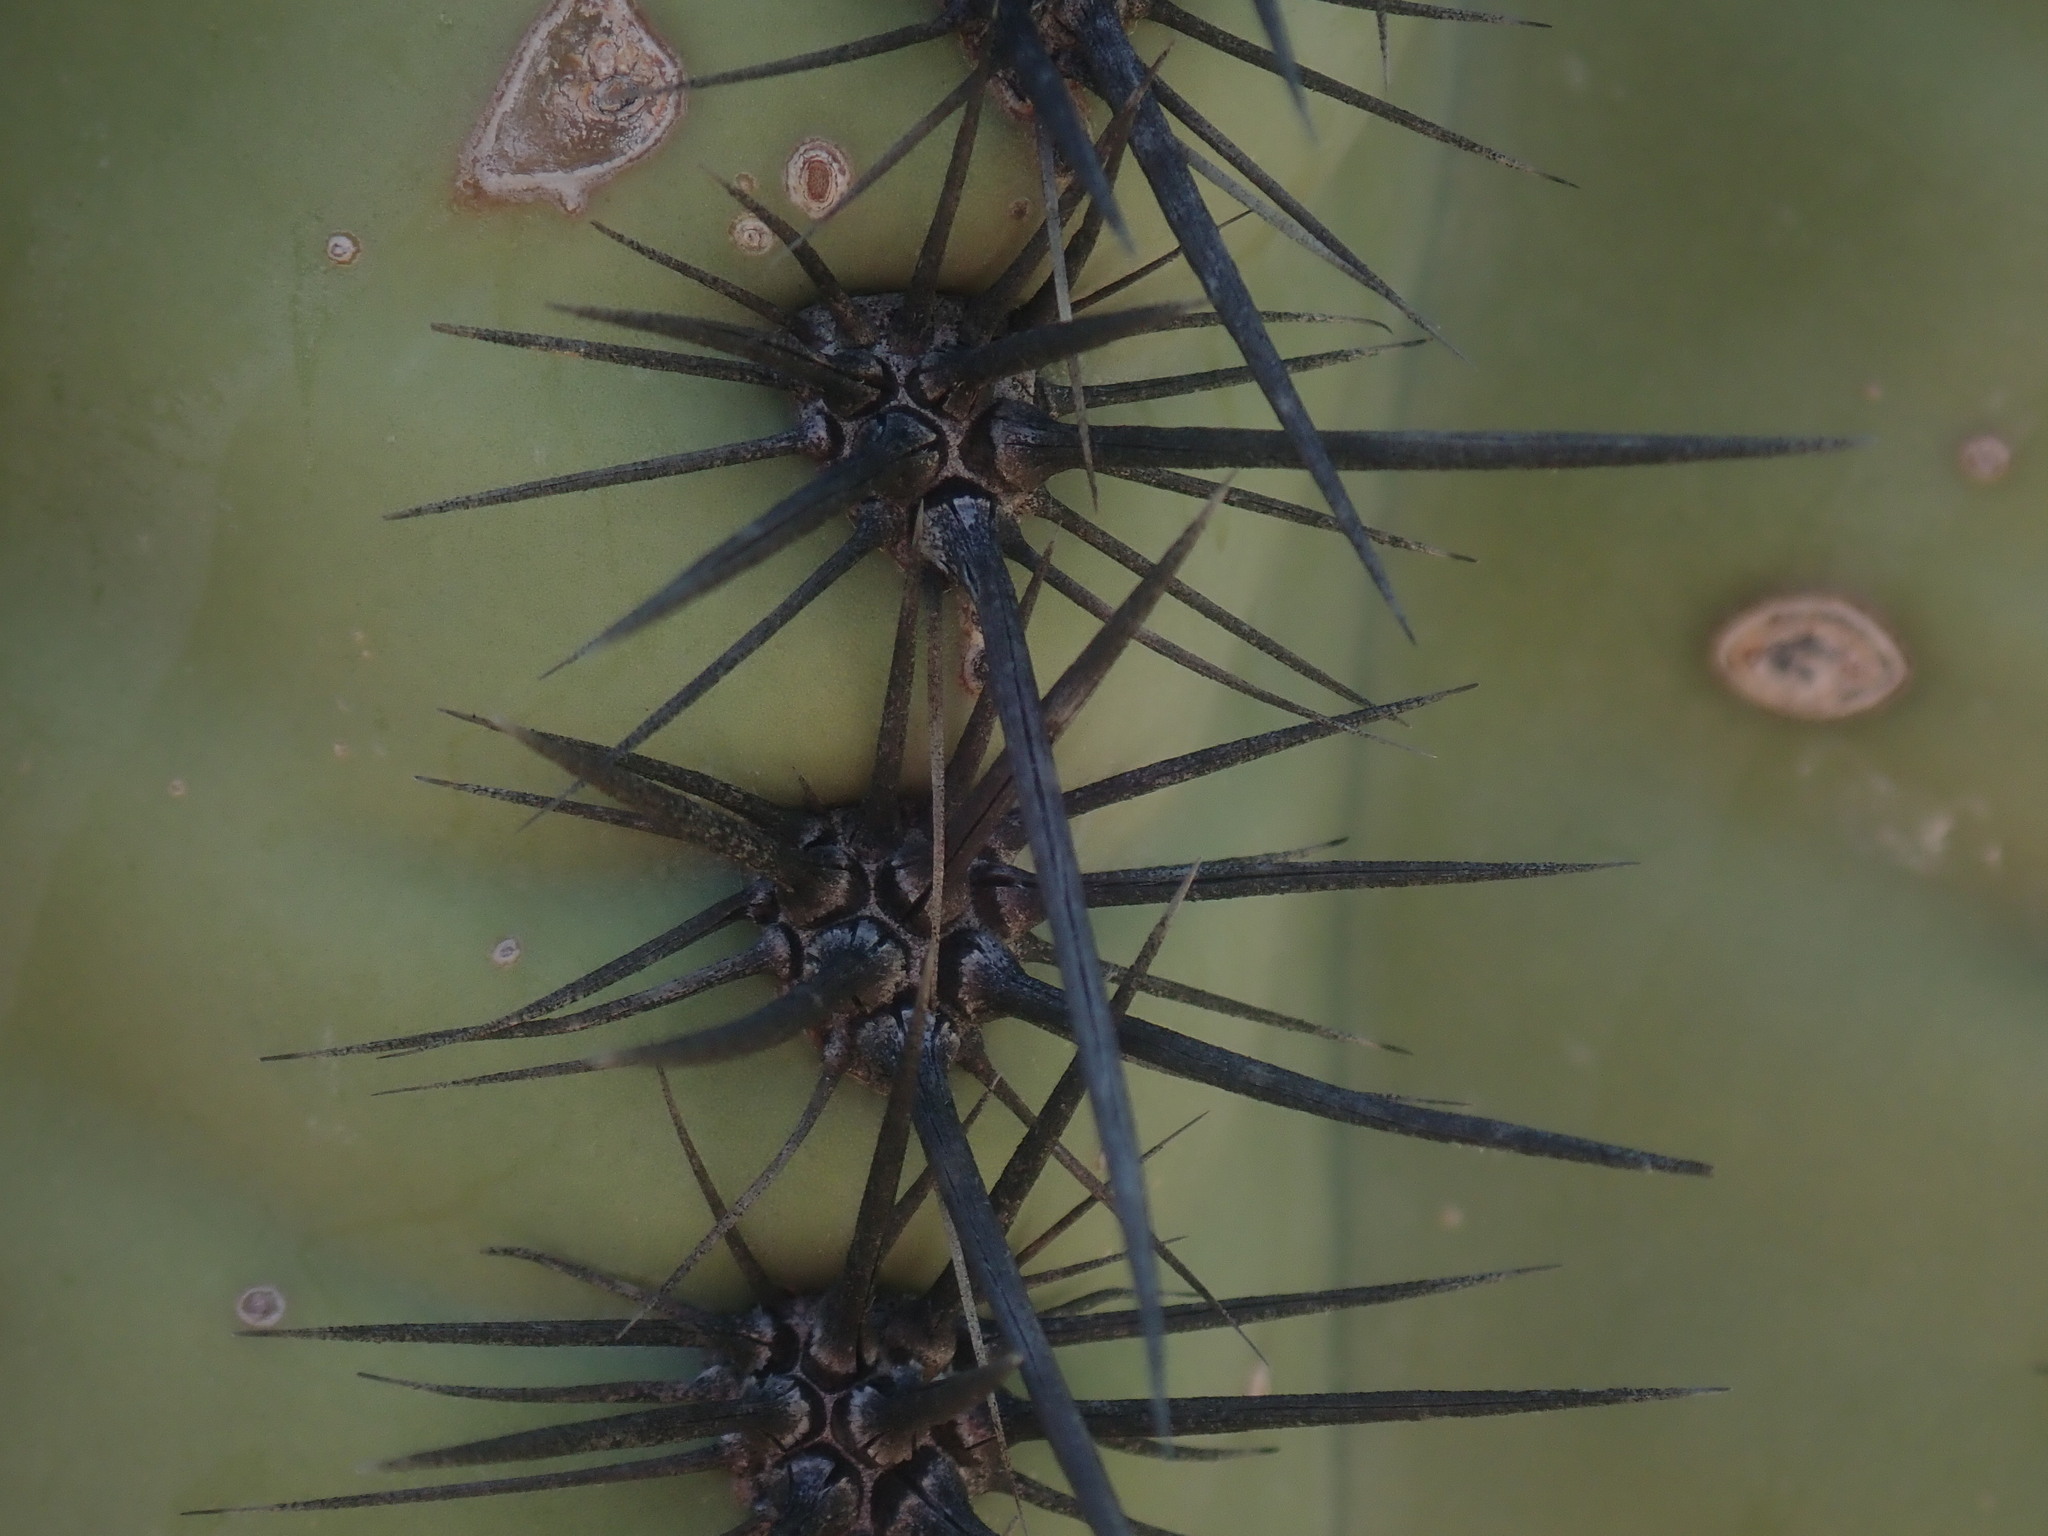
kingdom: Plantae
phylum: Tracheophyta
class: Magnoliopsida
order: Caryophyllales
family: Cactaceae
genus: Carnegiea
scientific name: Carnegiea gigantea
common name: Saguaro
